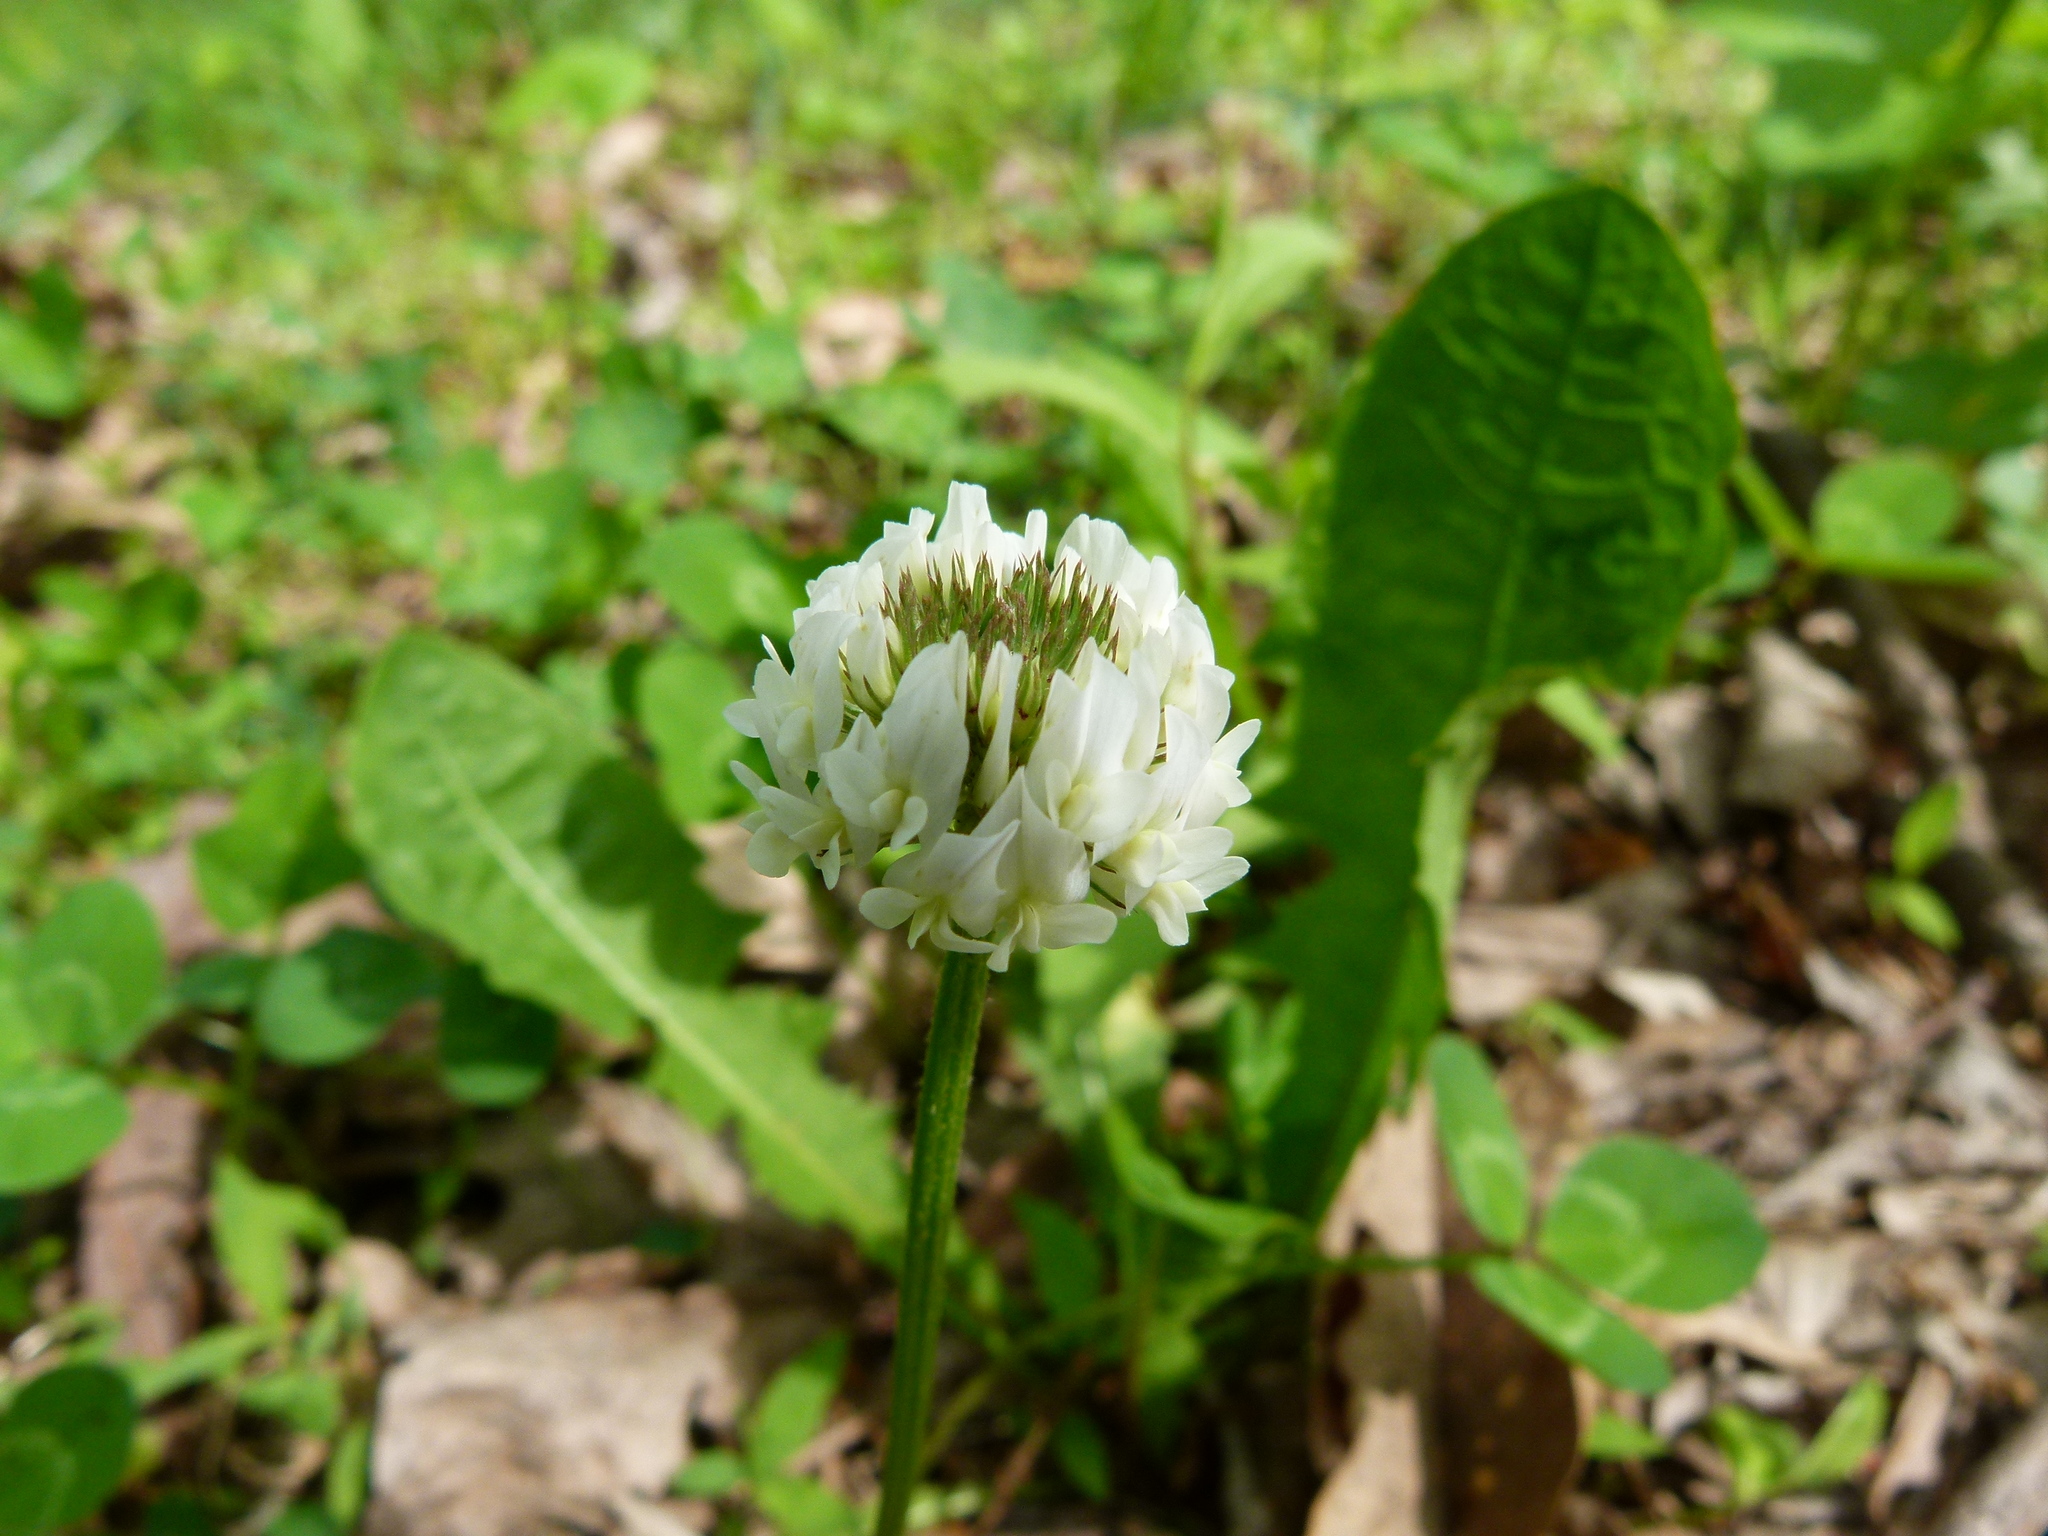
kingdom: Plantae
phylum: Tracheophyta
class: Magnoliopsida
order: Fabales
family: Fabaceae
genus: Trifolium
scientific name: Trifolium repens
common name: White clover
